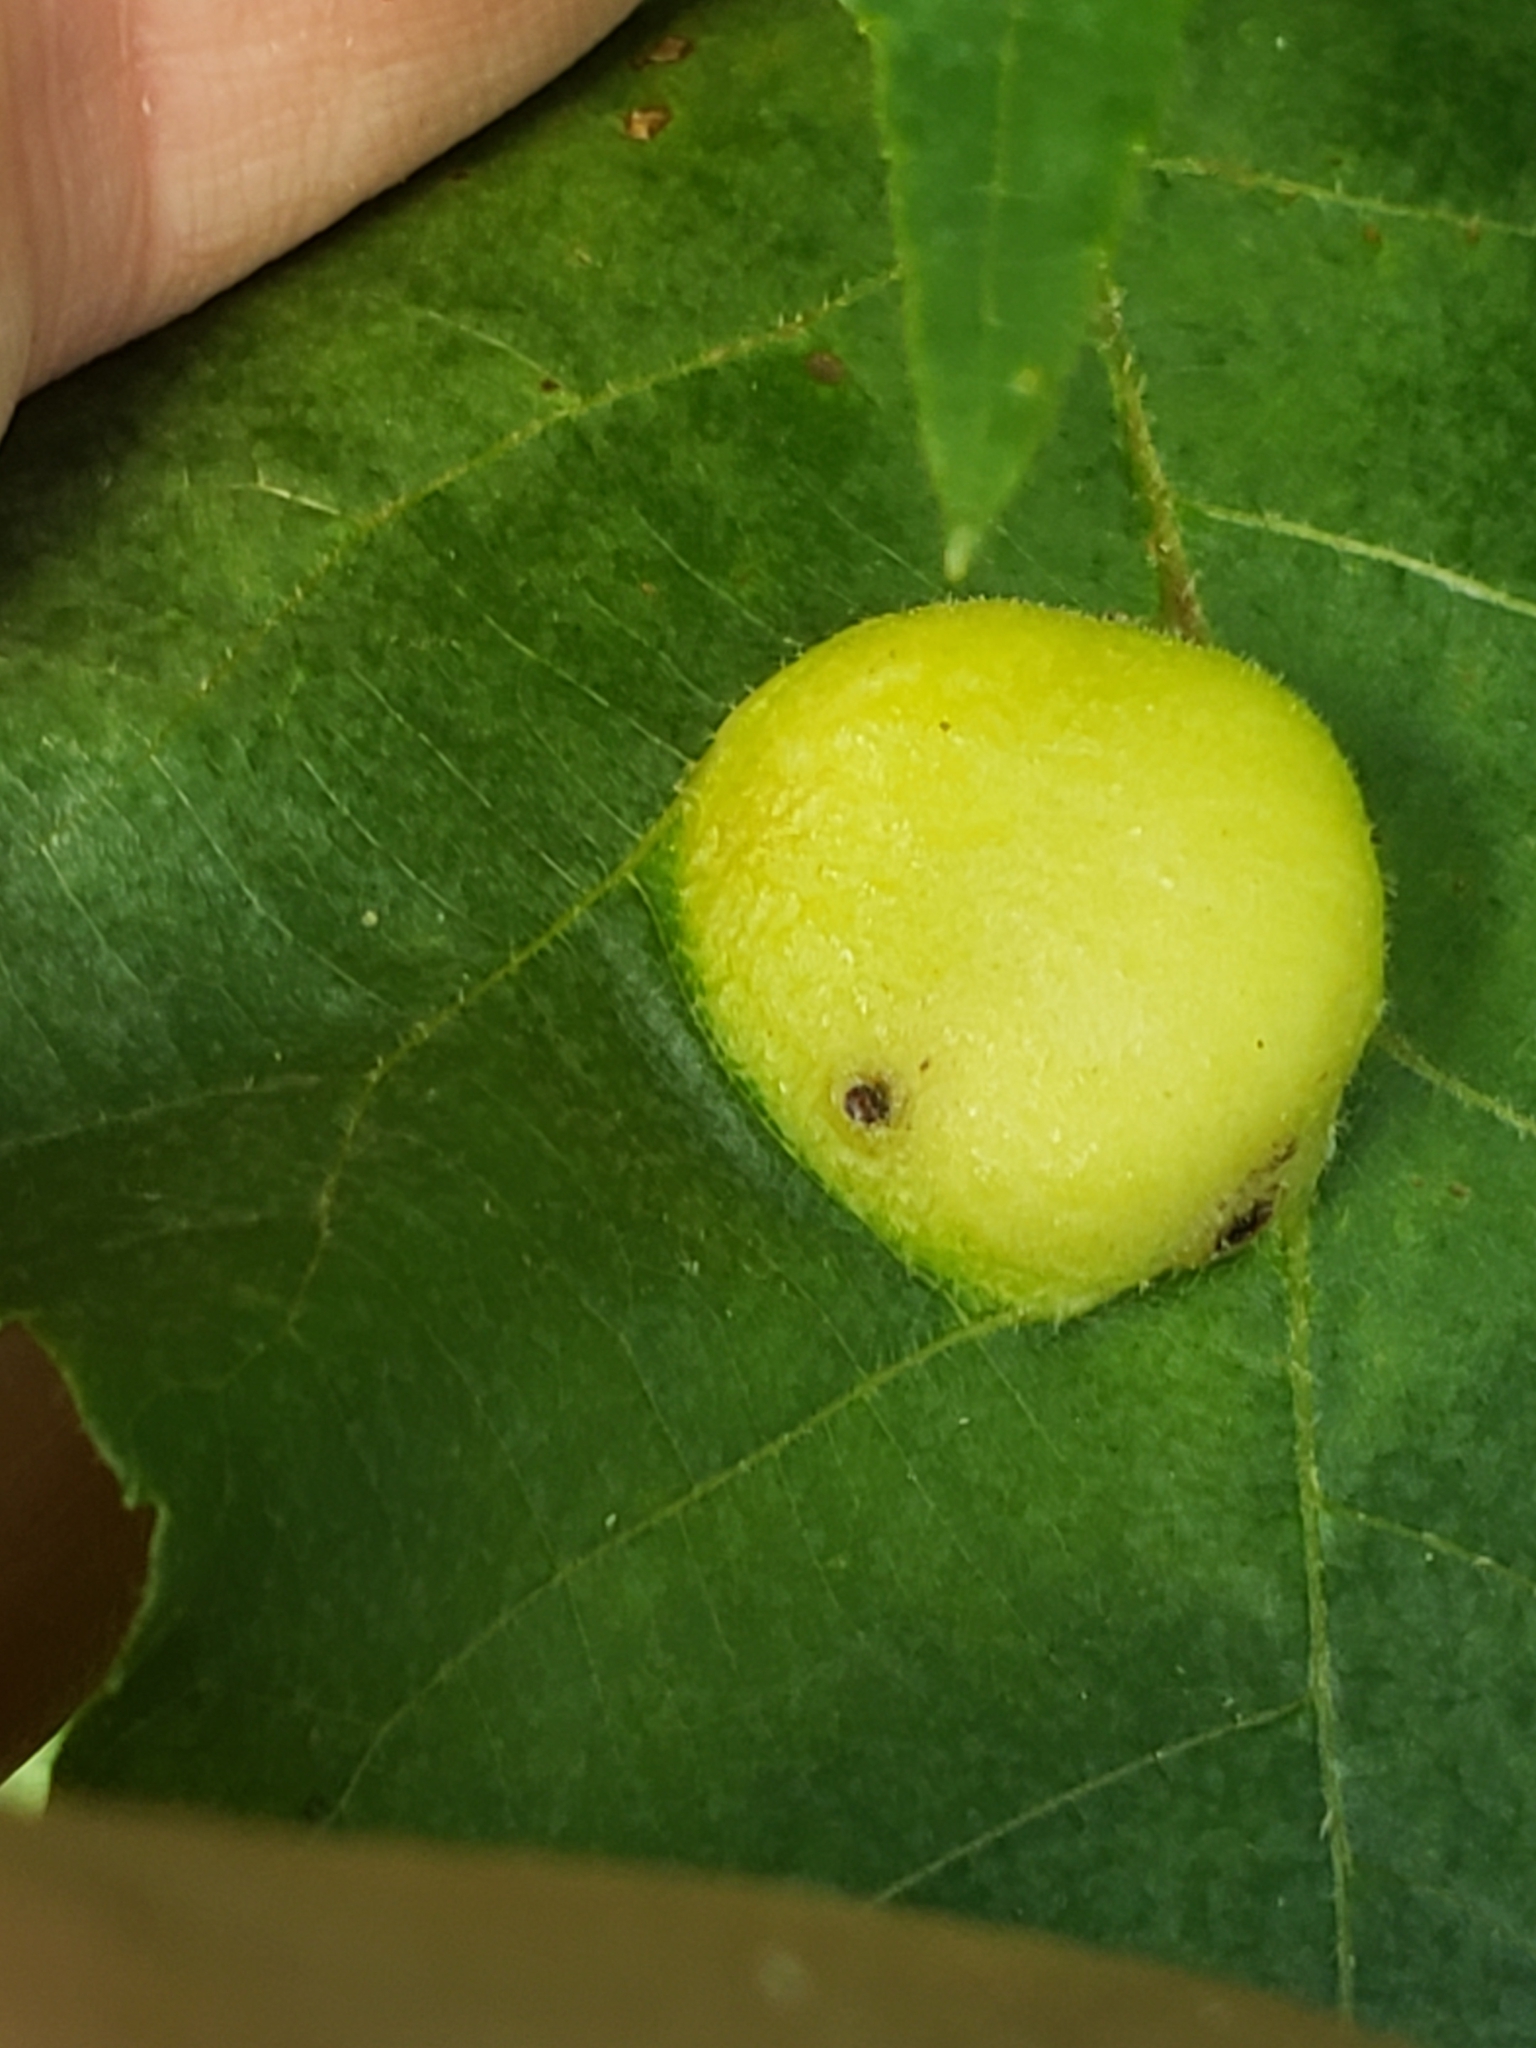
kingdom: Animalia
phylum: Arthropoda
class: Insecta
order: Hemiptera
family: Phylloxeridae
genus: Phylloxera
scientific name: Phylloxera caryae-scissa
